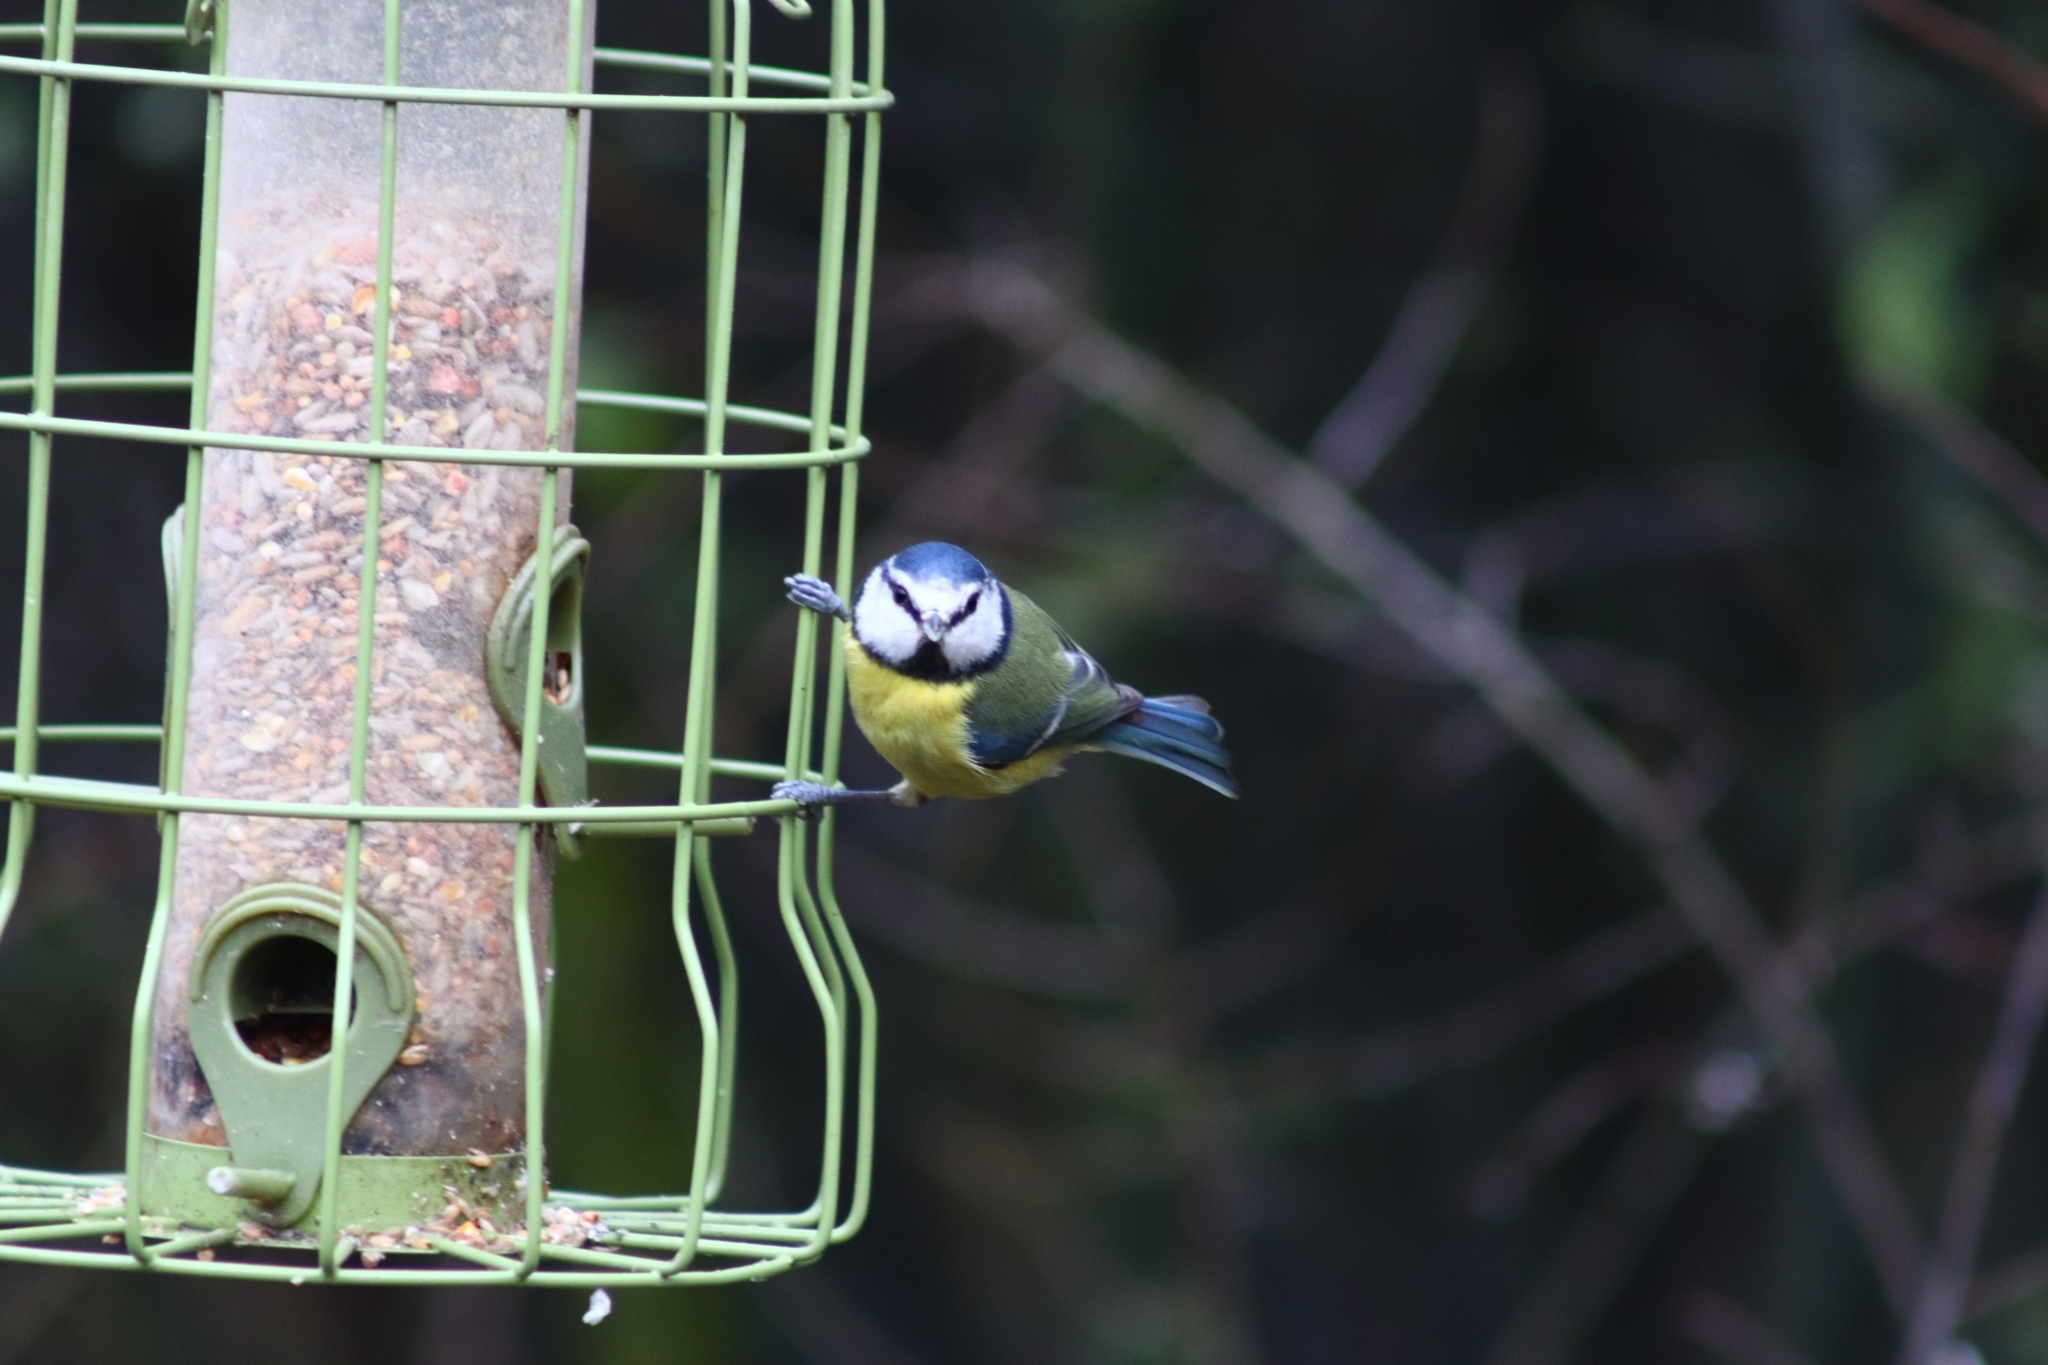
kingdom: Animalia
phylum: Chordata
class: Aves
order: Passeriformes
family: Paridae
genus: Cyanistes
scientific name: Cyanistes caeruleus
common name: Eurasian blue tit
